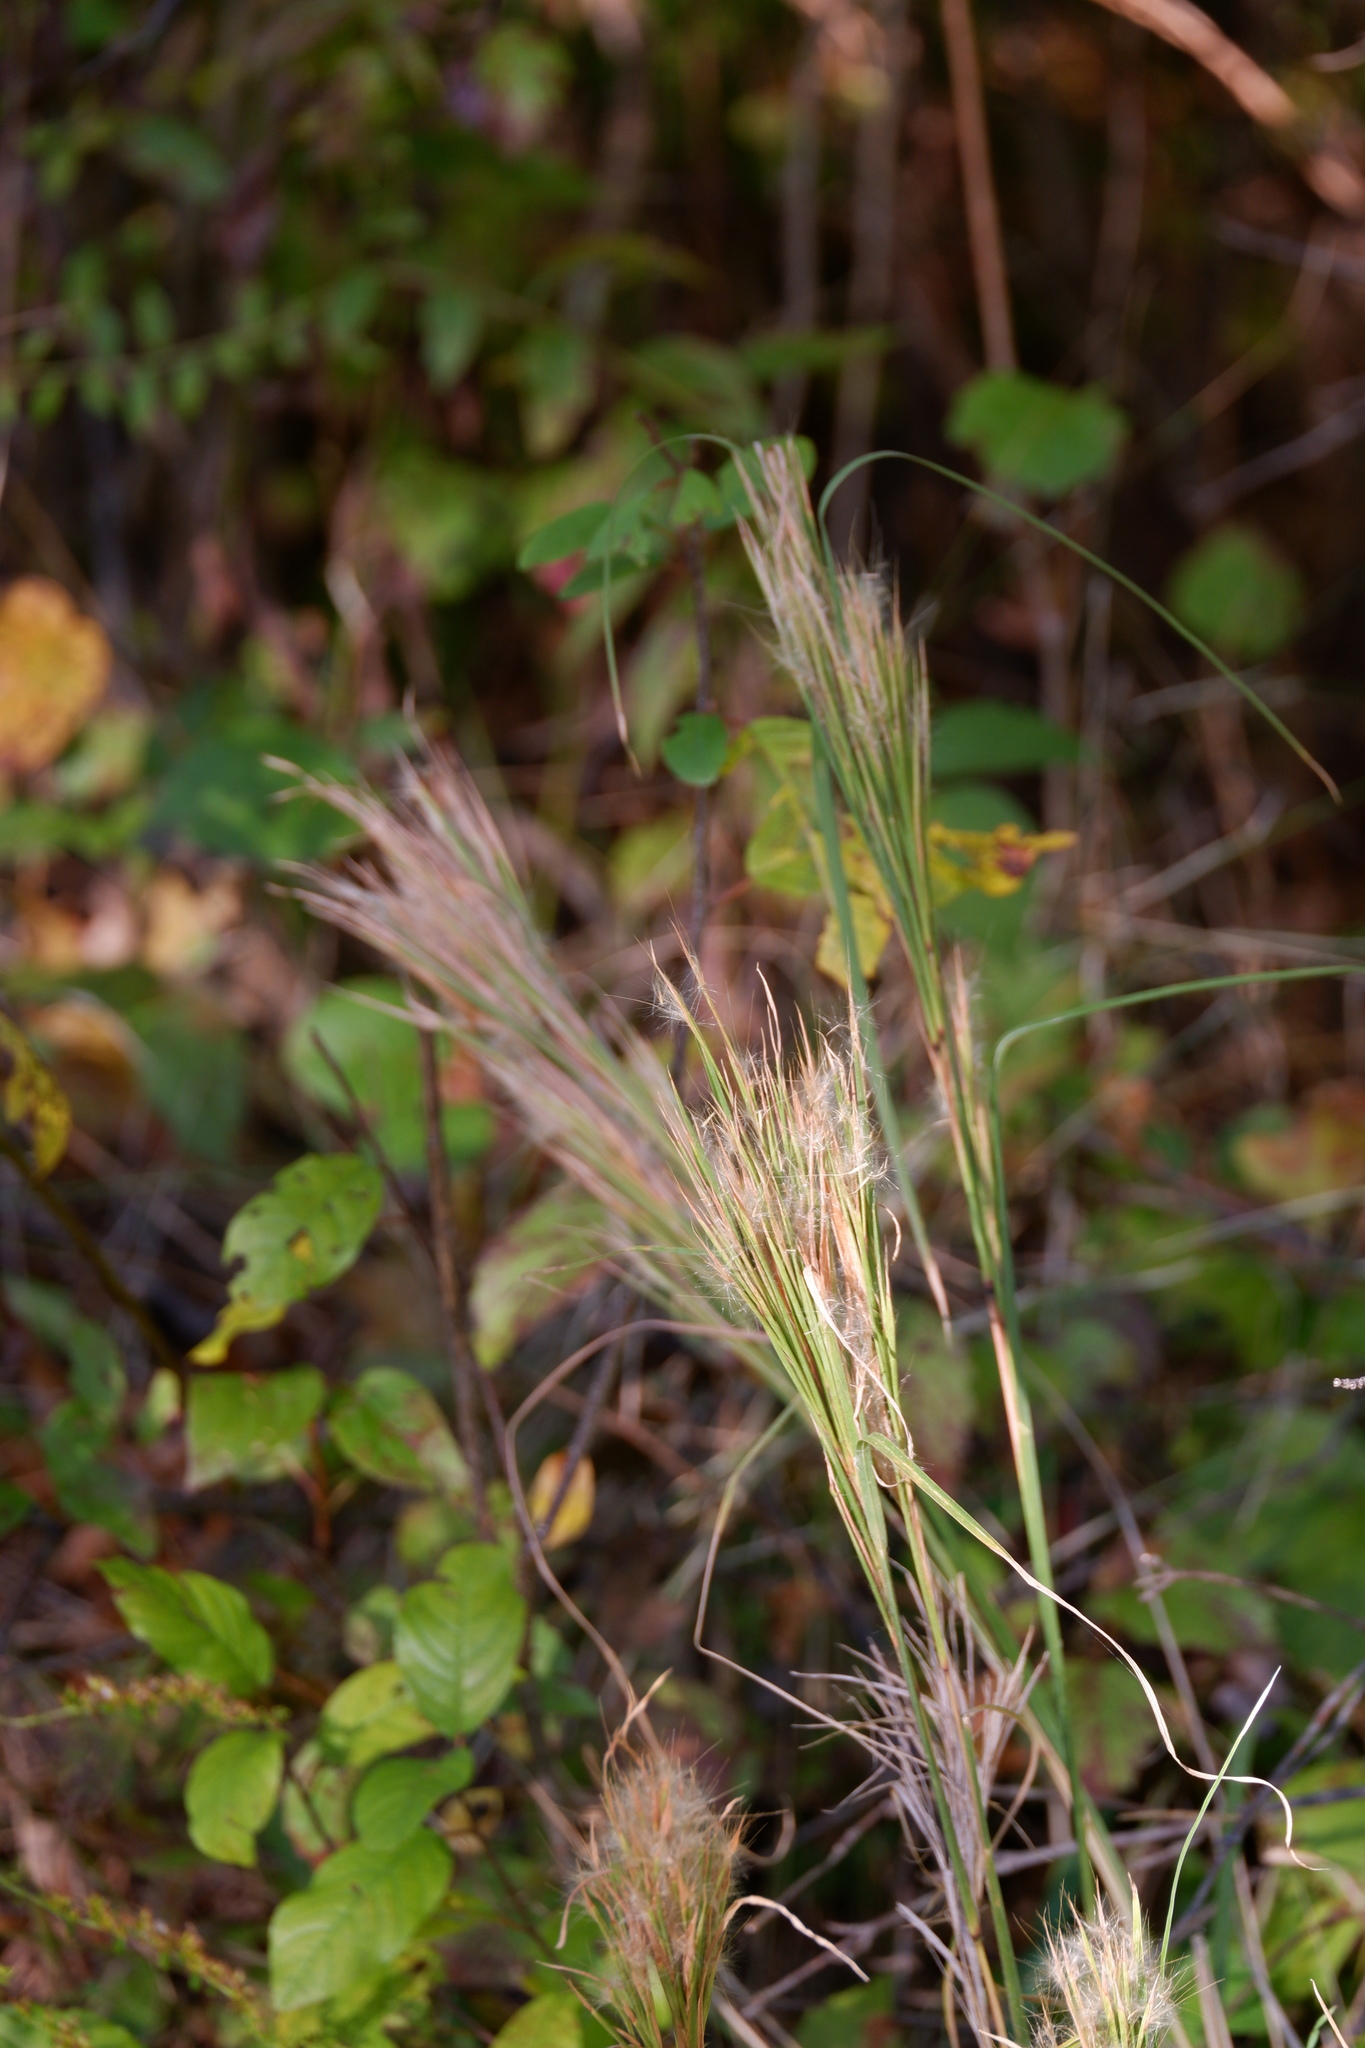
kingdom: Plantae
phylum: Tracheophyta
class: Liliopsida
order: Poales
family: Poaceae
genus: Andropogon
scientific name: Andropogon glomeratus
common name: Bushy beard grass
